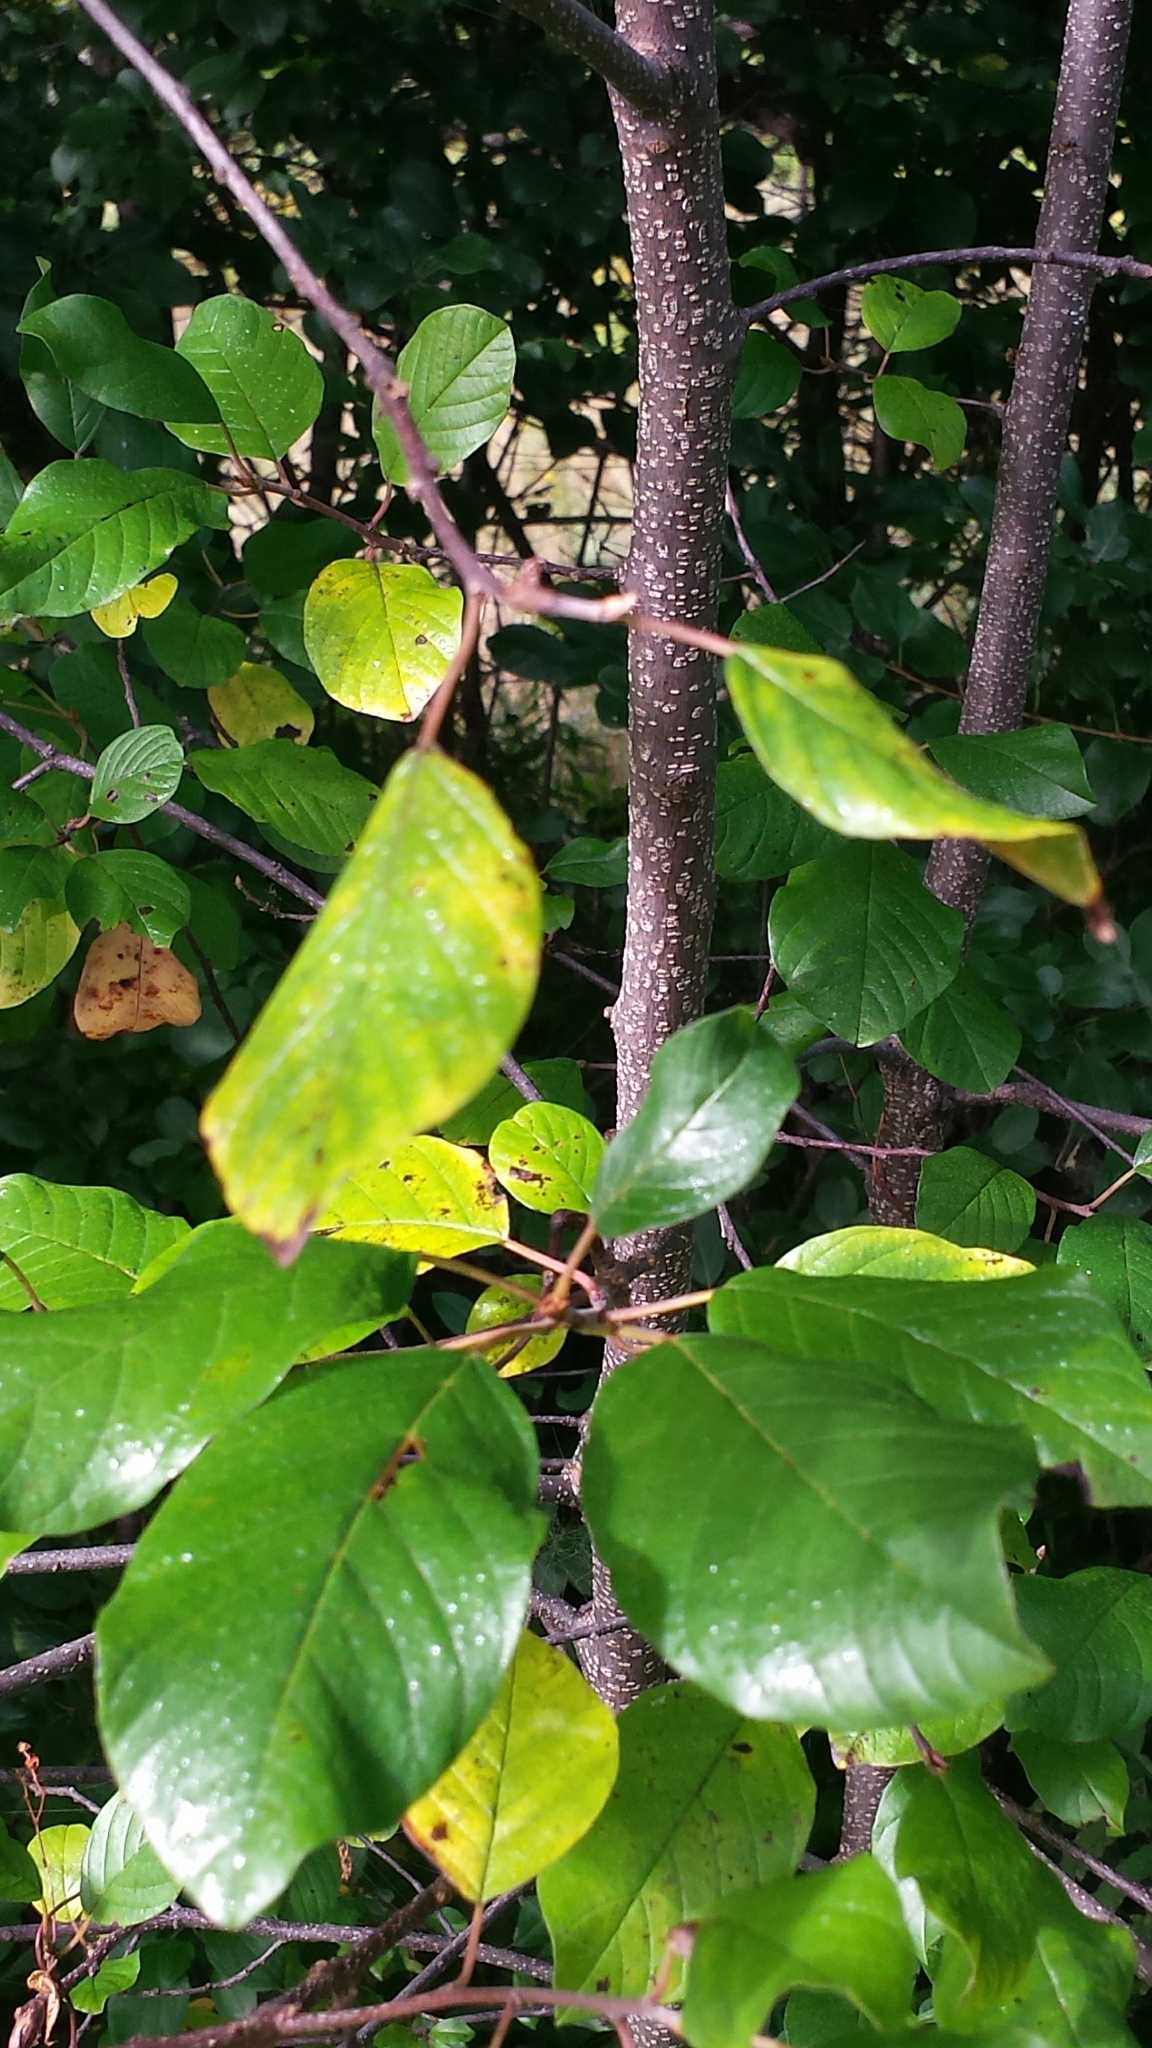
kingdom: Plantae
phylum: Tracheophyta
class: Magnoliopsida
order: Rosales
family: Rhamnaceae
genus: Frangula
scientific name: Frangula alnus
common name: Alder buckthorn
